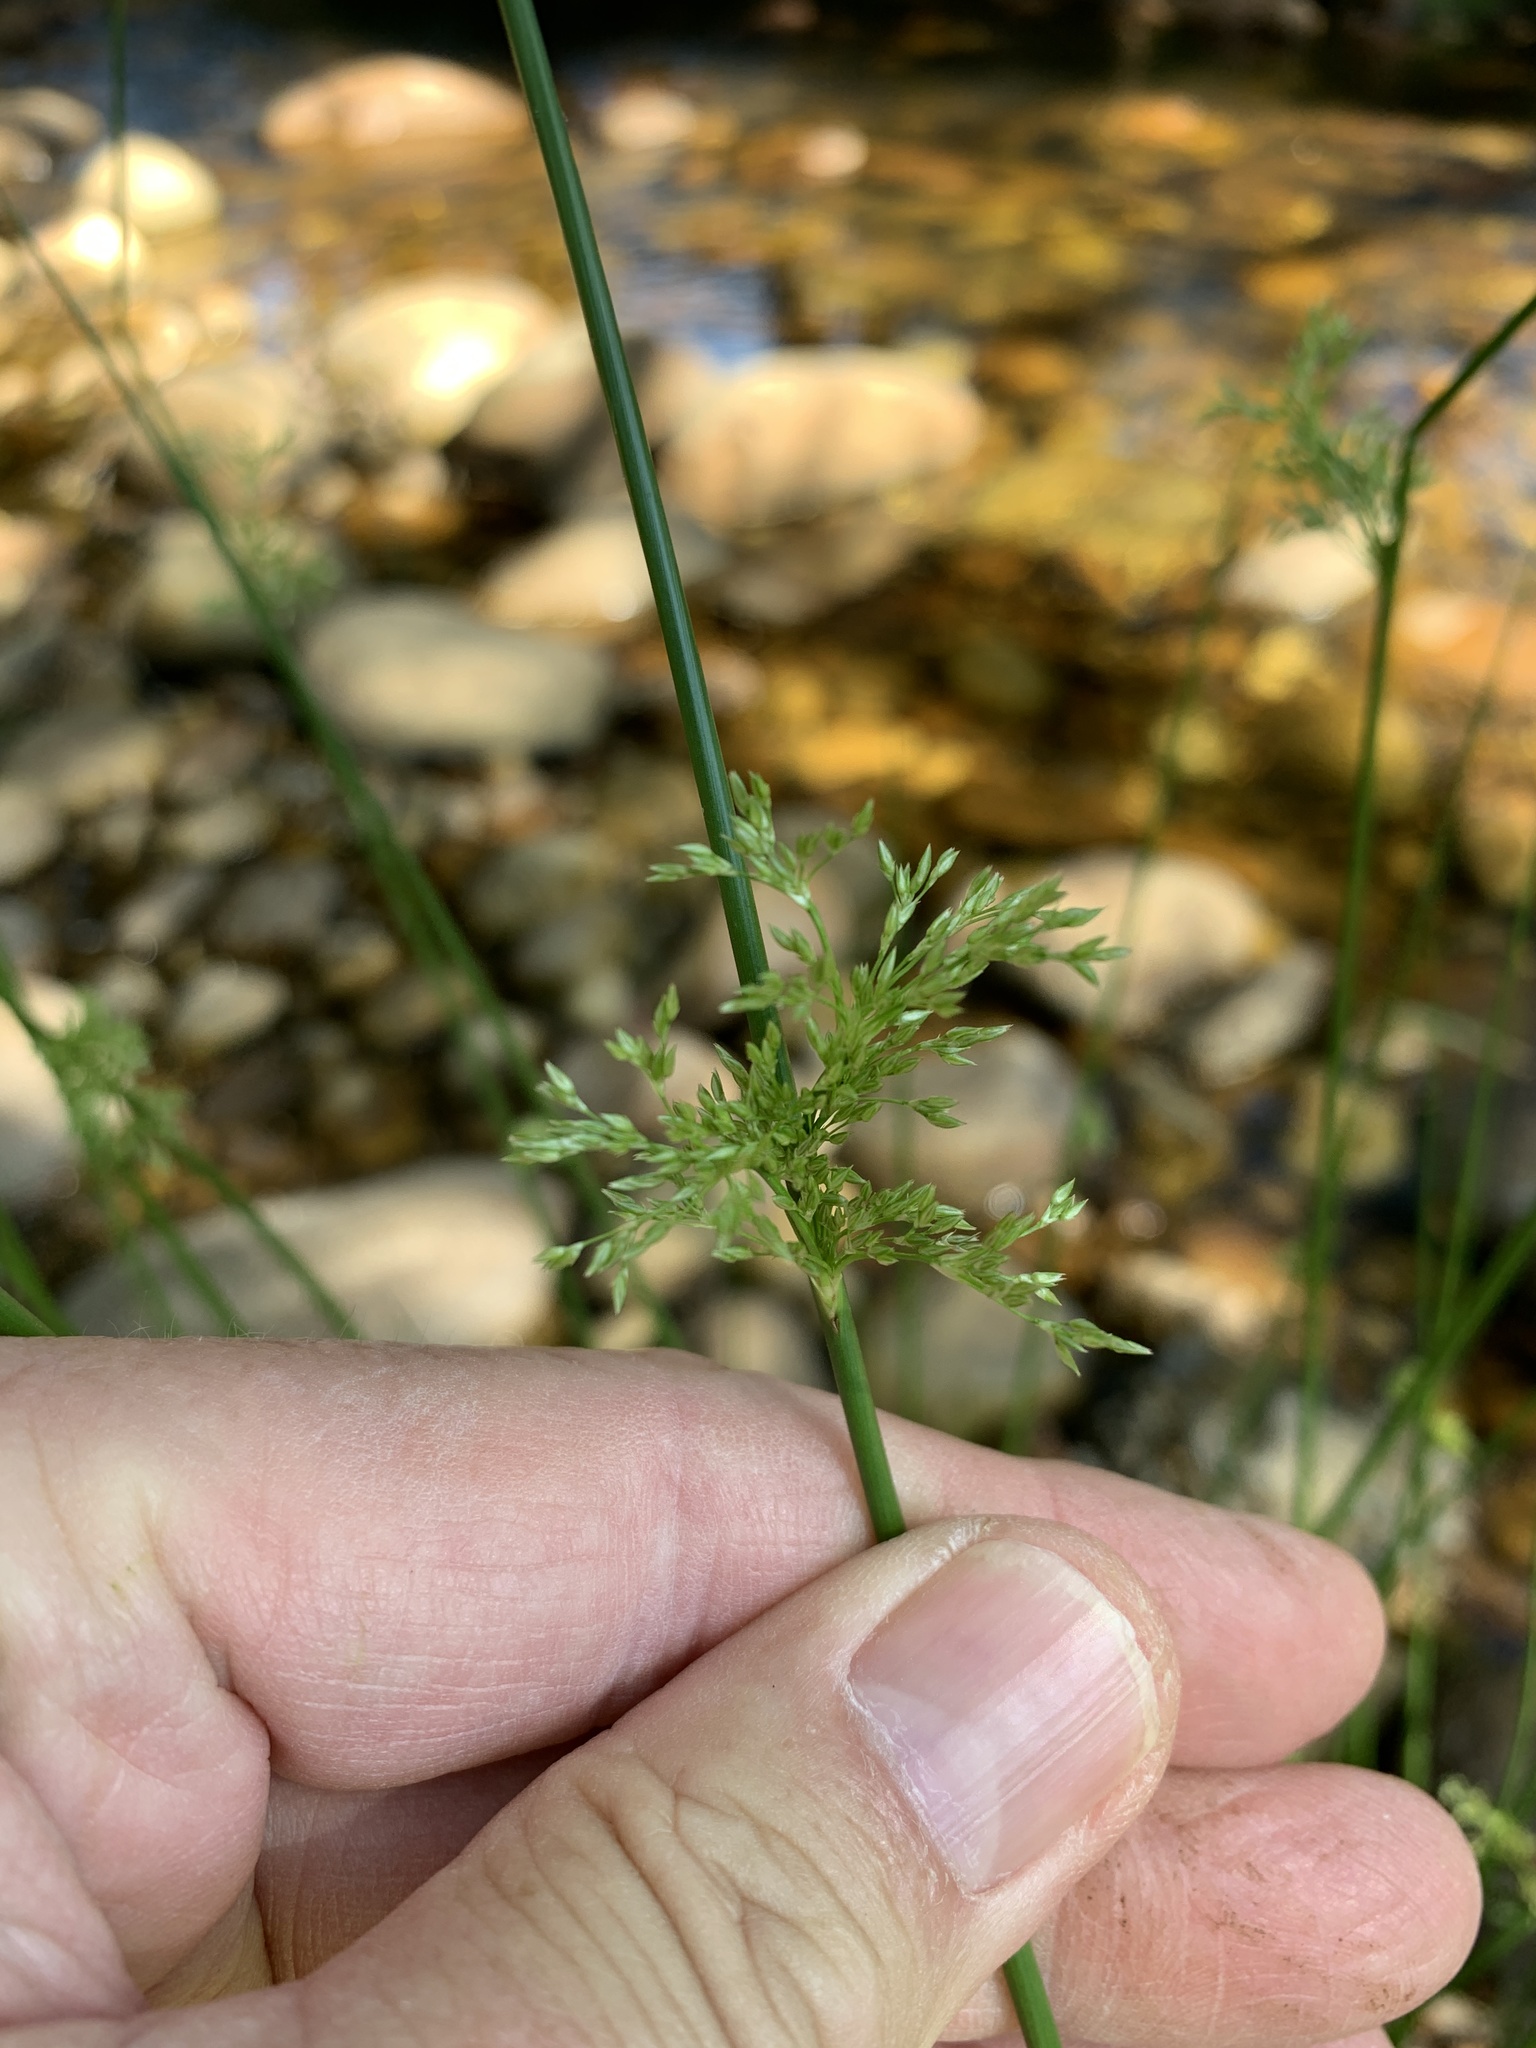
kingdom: Plantae
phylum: Tracheophyta
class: Liliopsida
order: Poales
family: Juncaceae
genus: Juncus
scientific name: Juncus effusus
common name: Soft rush
